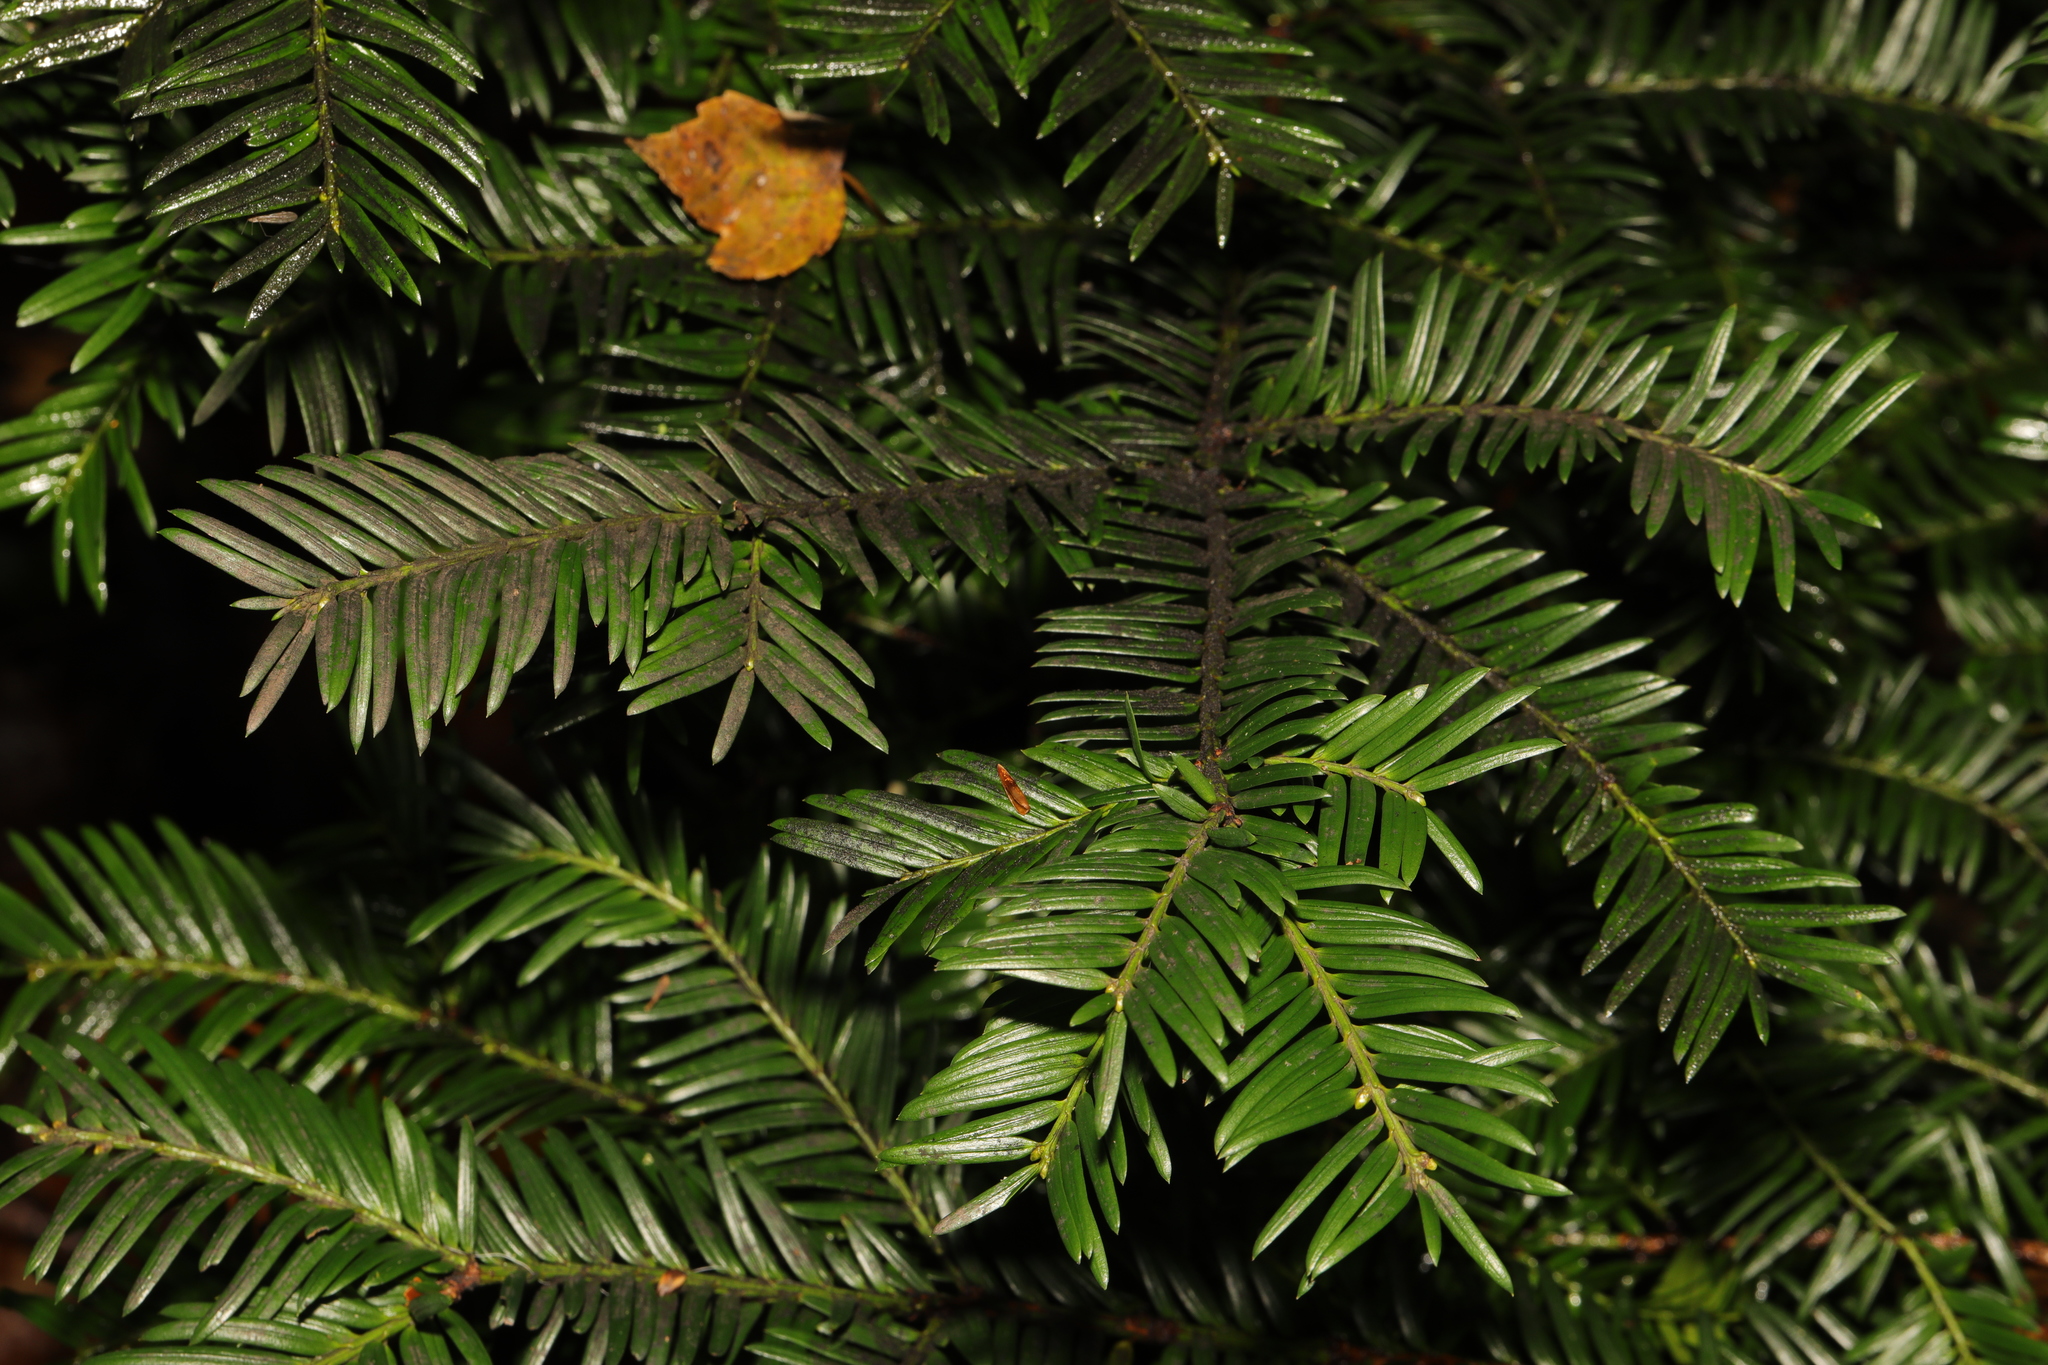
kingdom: Plantae
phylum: Tracheophyta
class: Pinopsida
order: Pinales
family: Taxaceae
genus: Taxus
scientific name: Taxus baccata
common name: Yew
